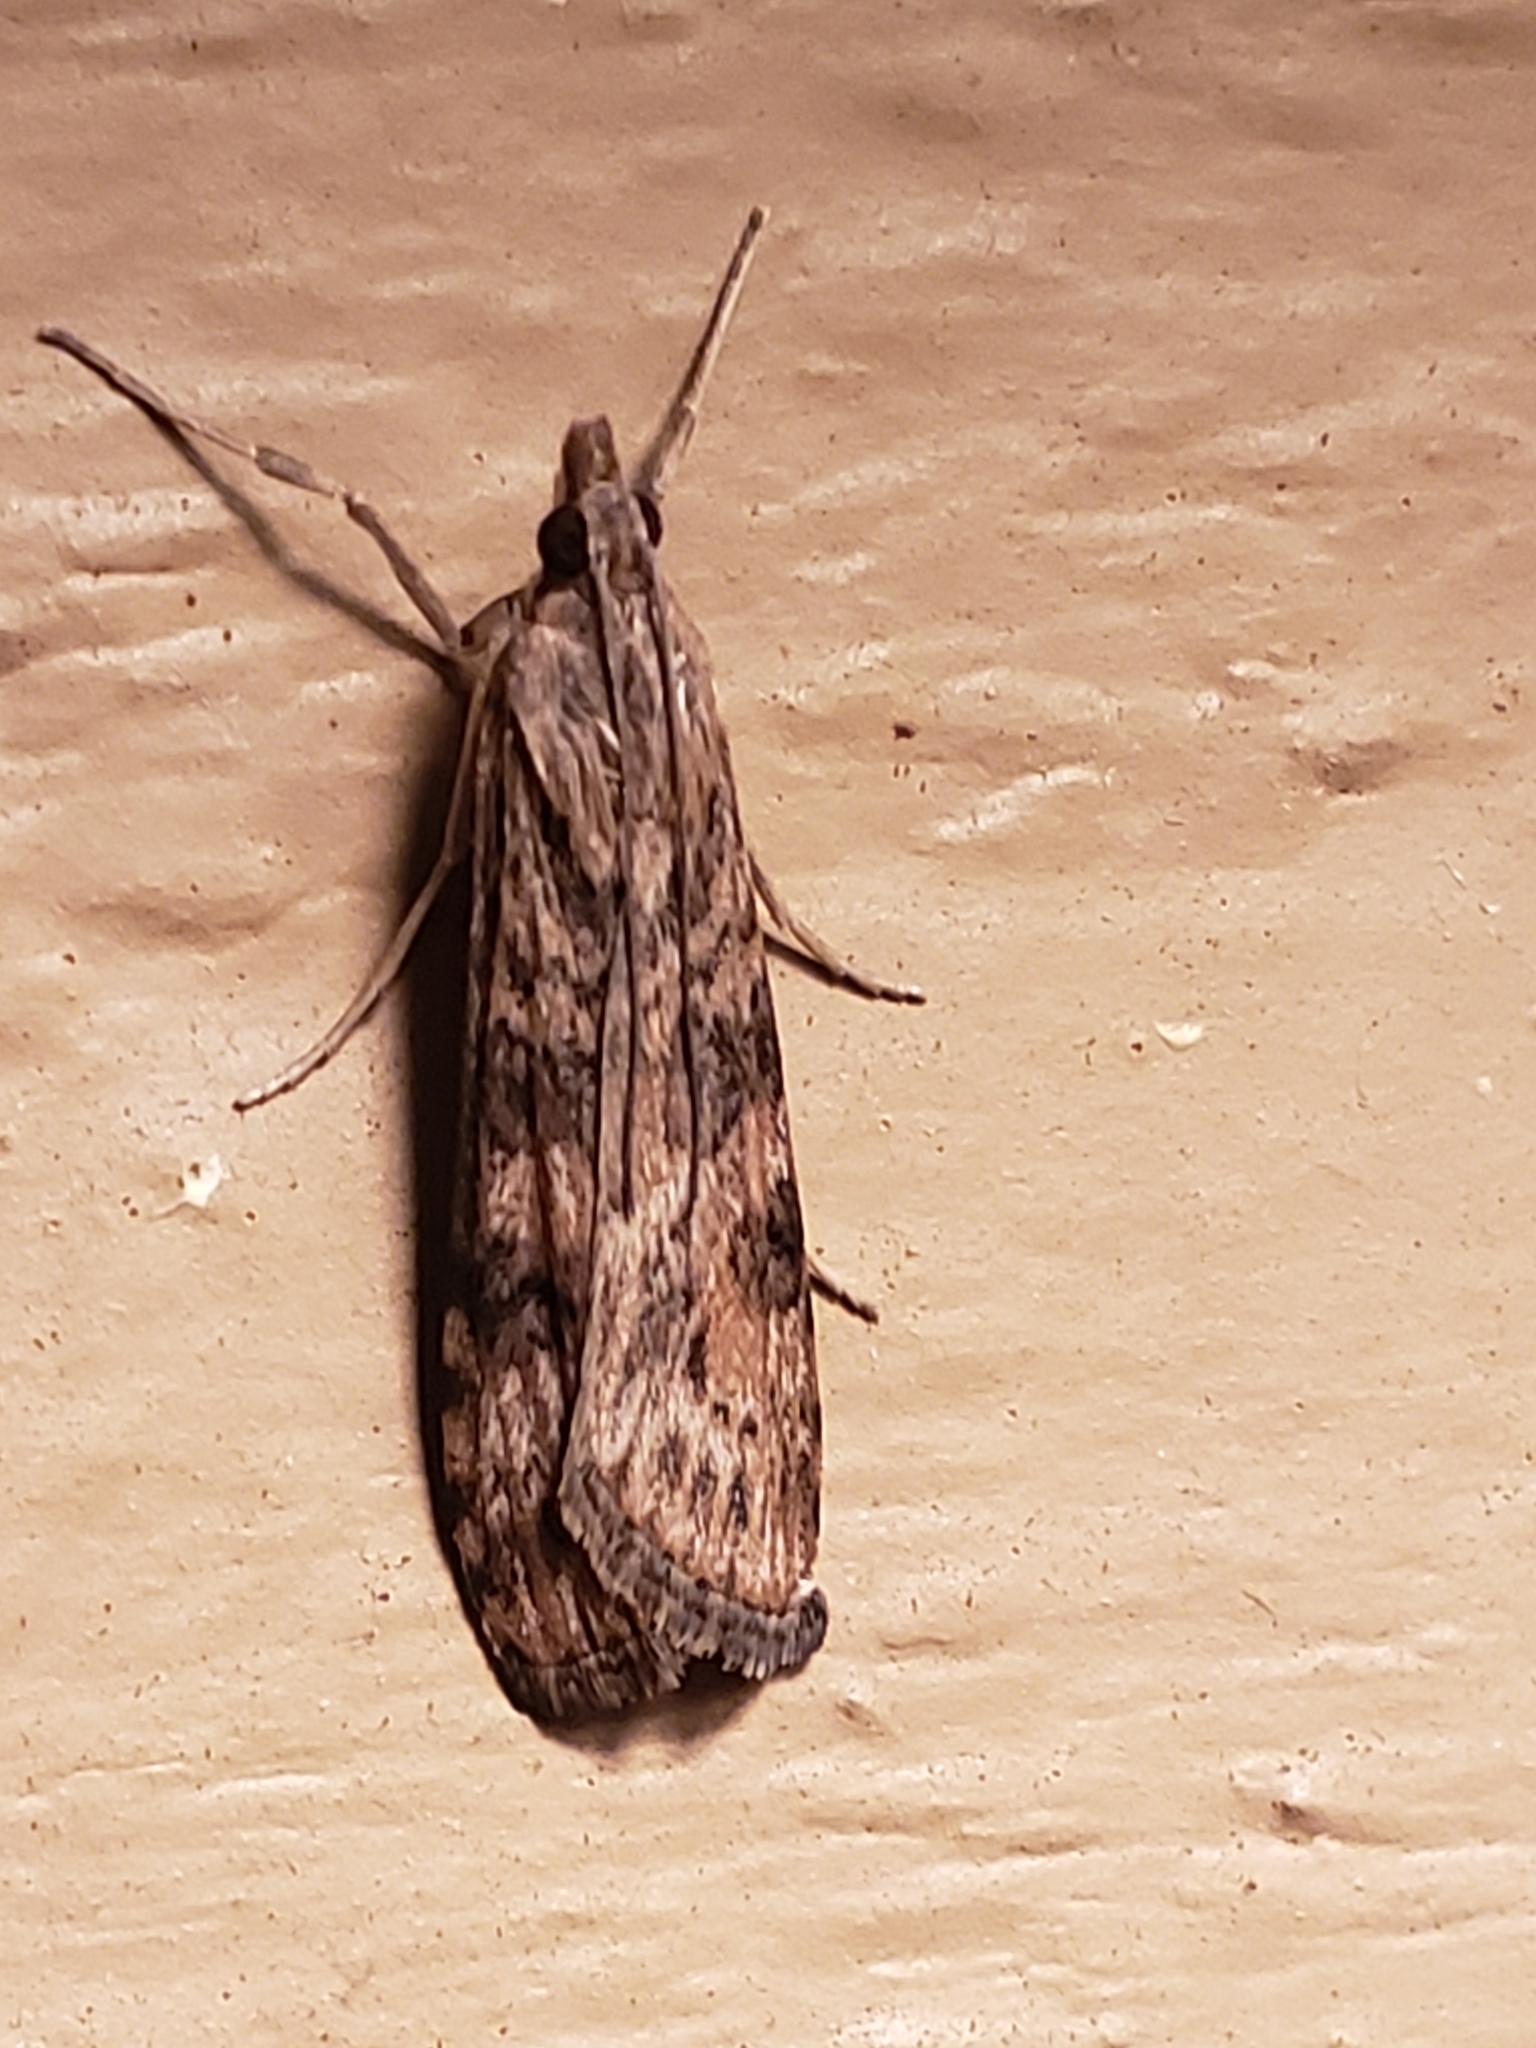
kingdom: Animalia
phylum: Arthropoda
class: Insecta
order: Lepidoptera
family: Crambidae
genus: Nomophila
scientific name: Nomophila nearctica
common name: American rush veneer
